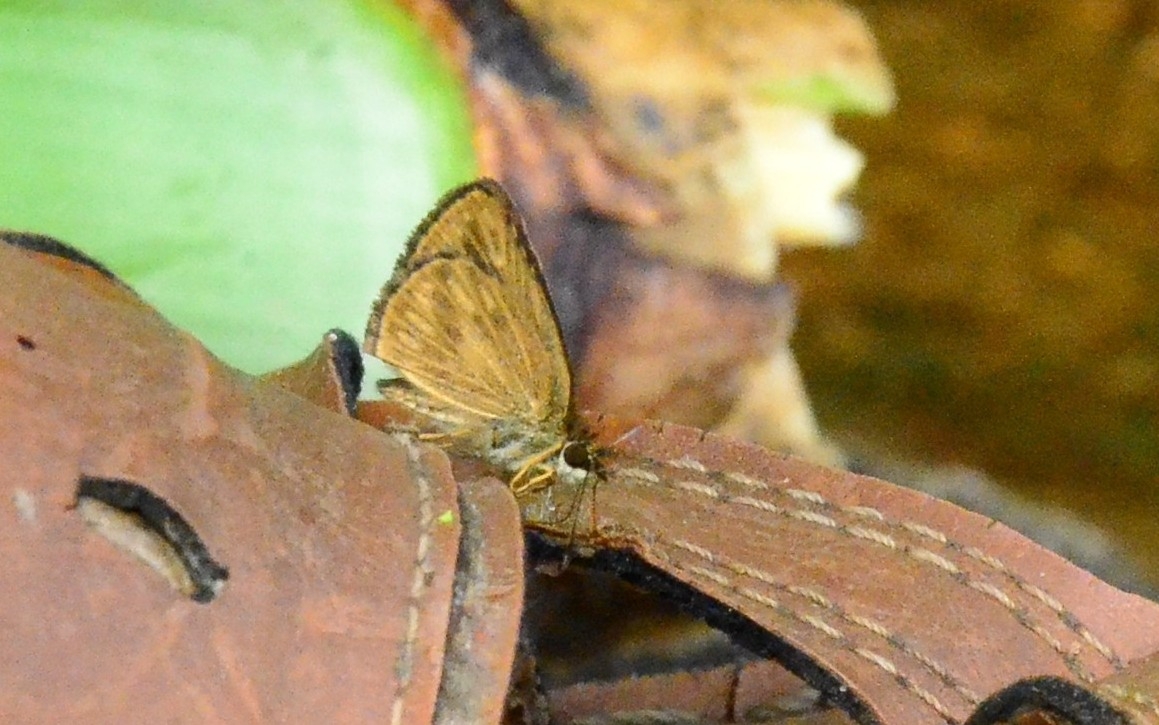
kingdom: Animalia
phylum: Arthropoda
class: Insecta
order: Lepidoptera
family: Hesperiidae
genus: Baracus
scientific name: Baracus vittatus
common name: Hedge-hopper
